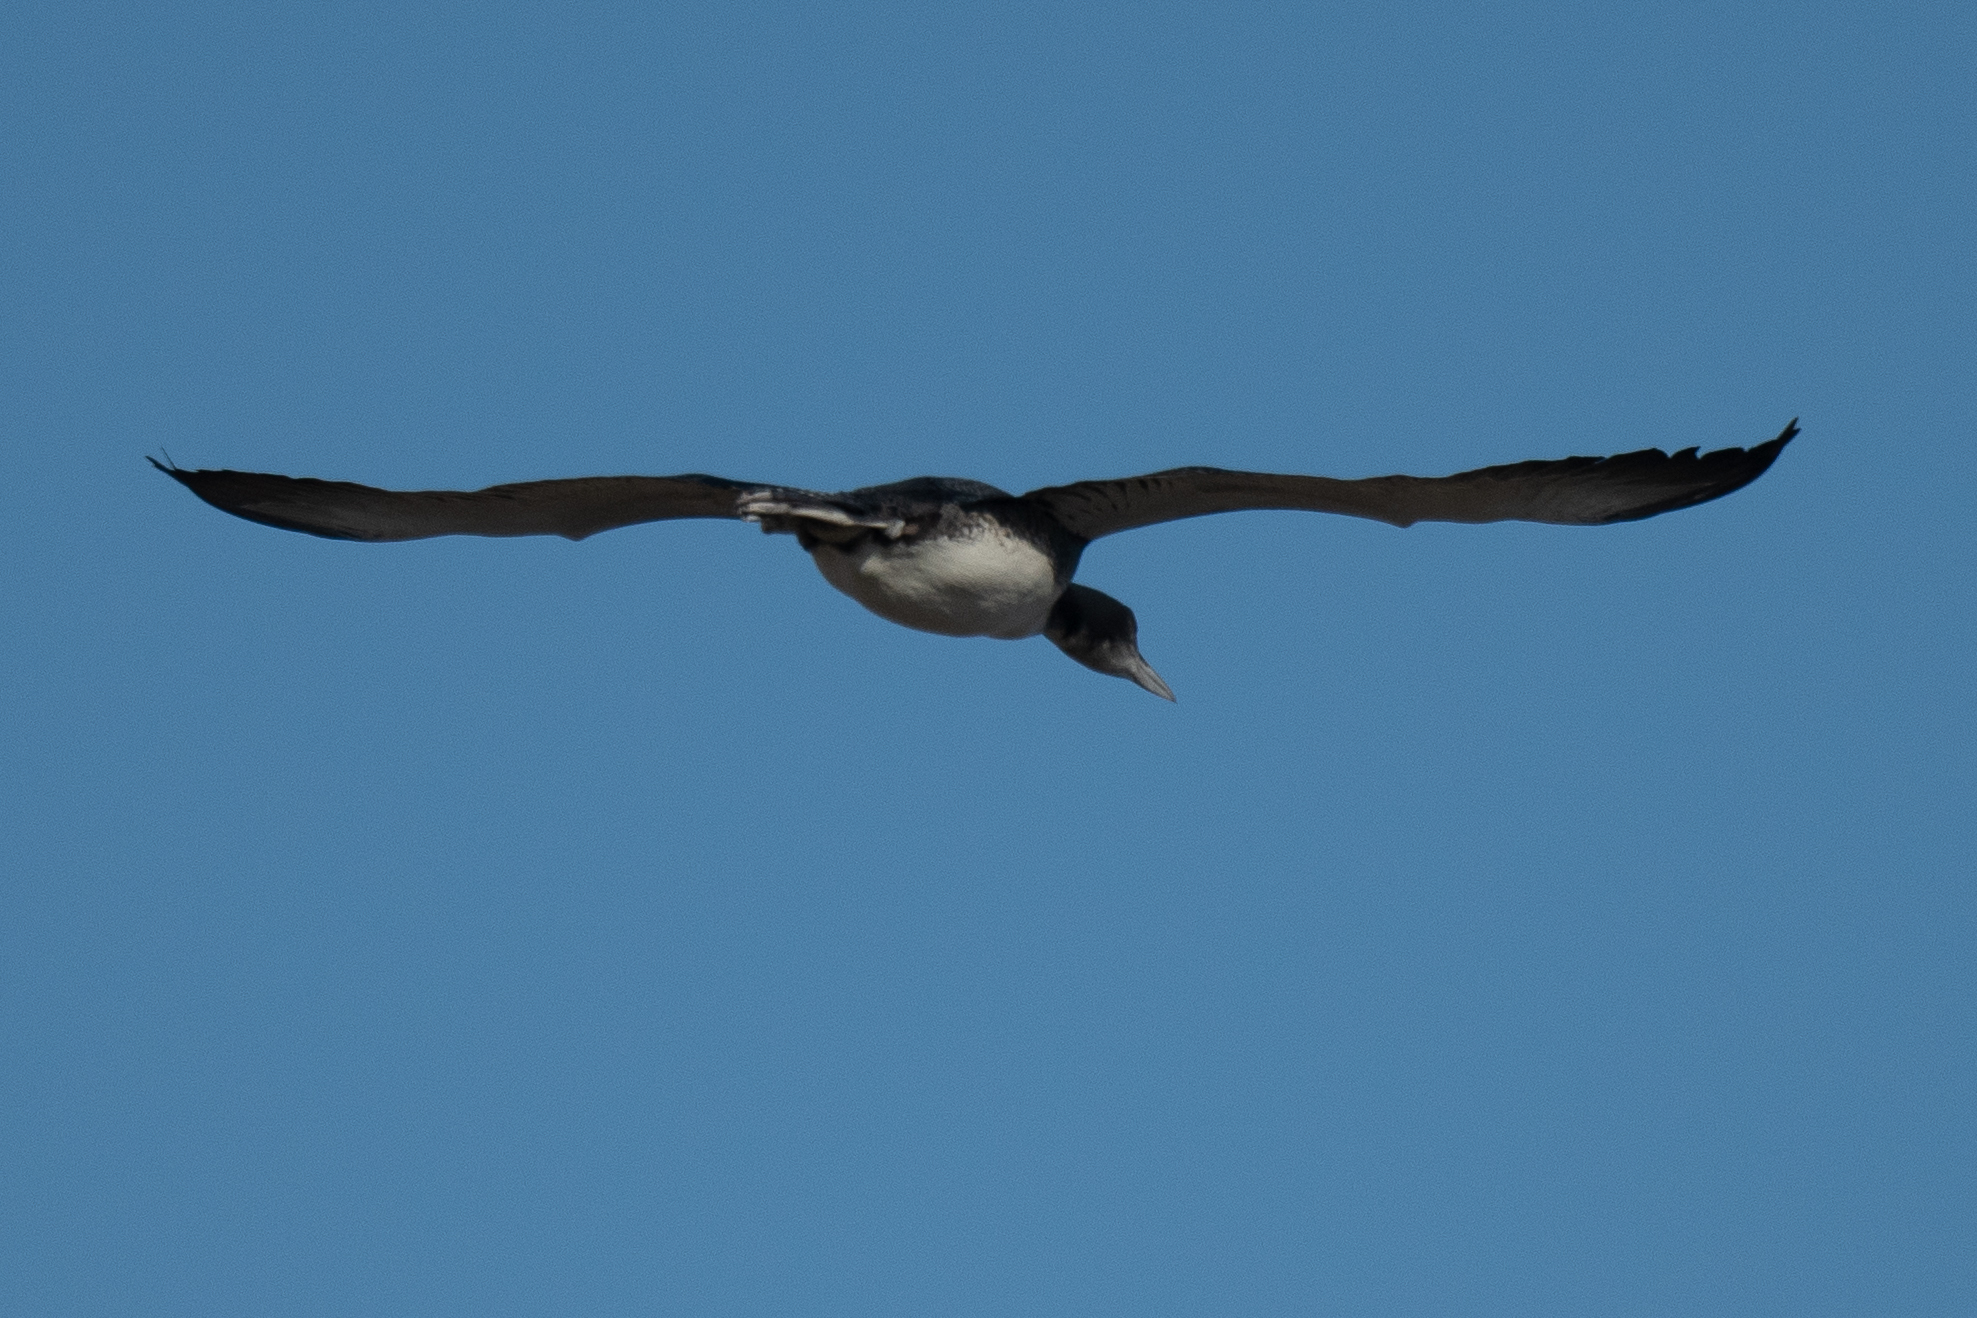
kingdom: Animalia
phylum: Chordata
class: Aves
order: Gaviiformes
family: Gaviidae
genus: Gavia
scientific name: Gavia immer
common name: Common loon
